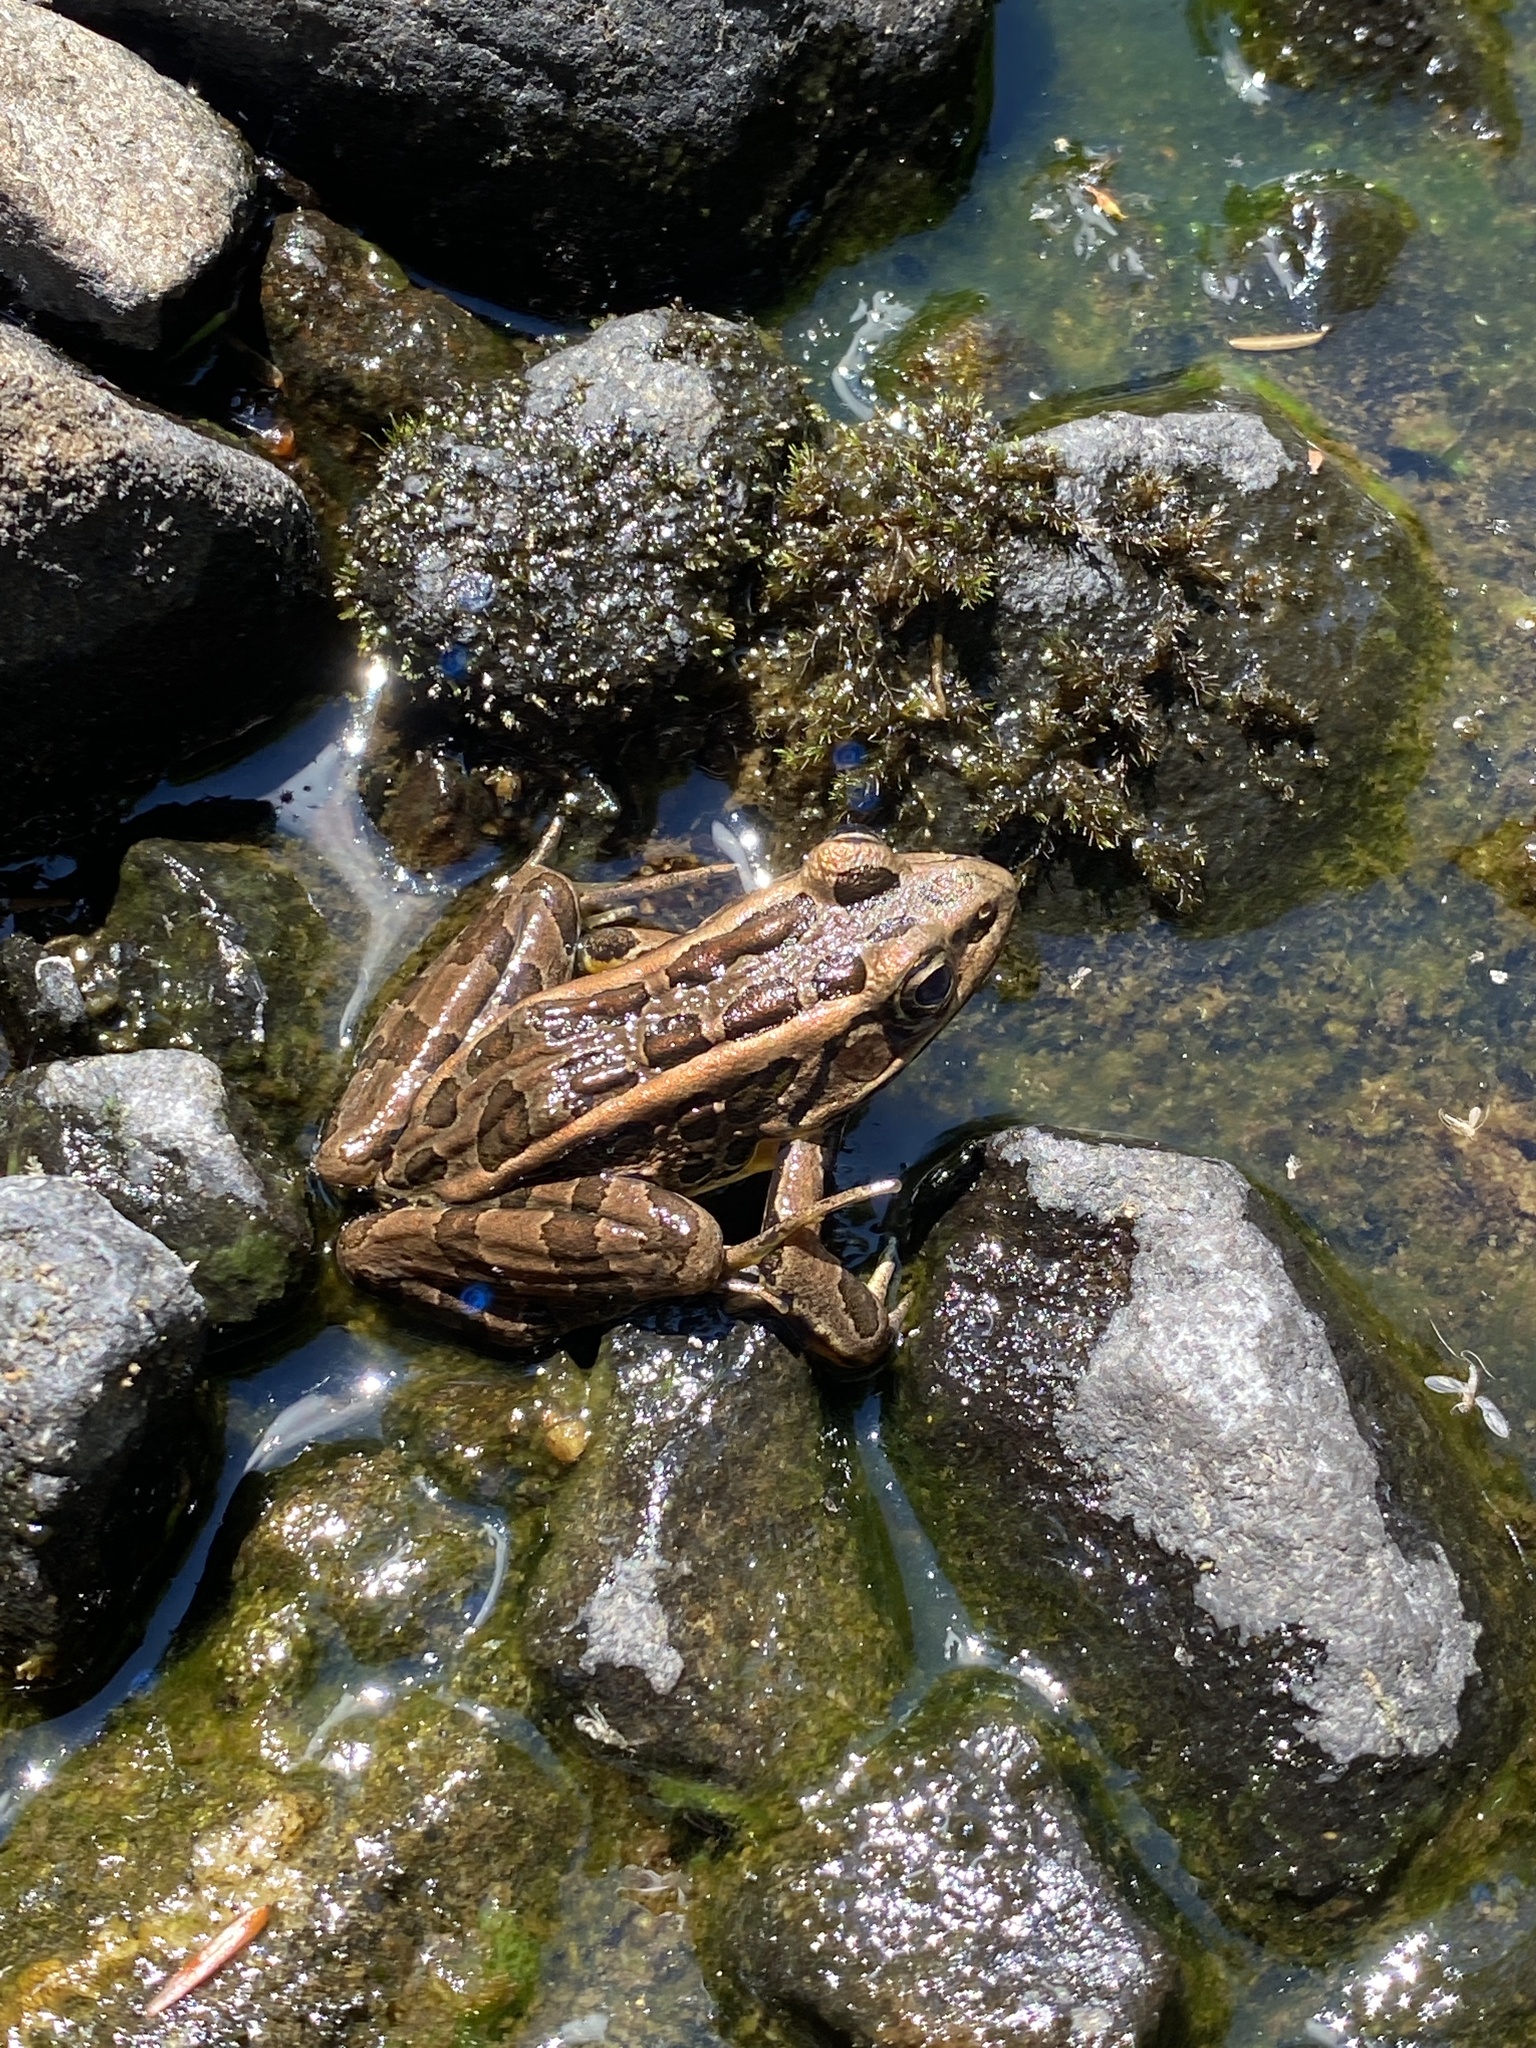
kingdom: Animalia
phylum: Chordata
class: Amphibia
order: Anura
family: Ranidae
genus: Lithobates
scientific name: Lithobates palustris
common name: Pickerel frog
